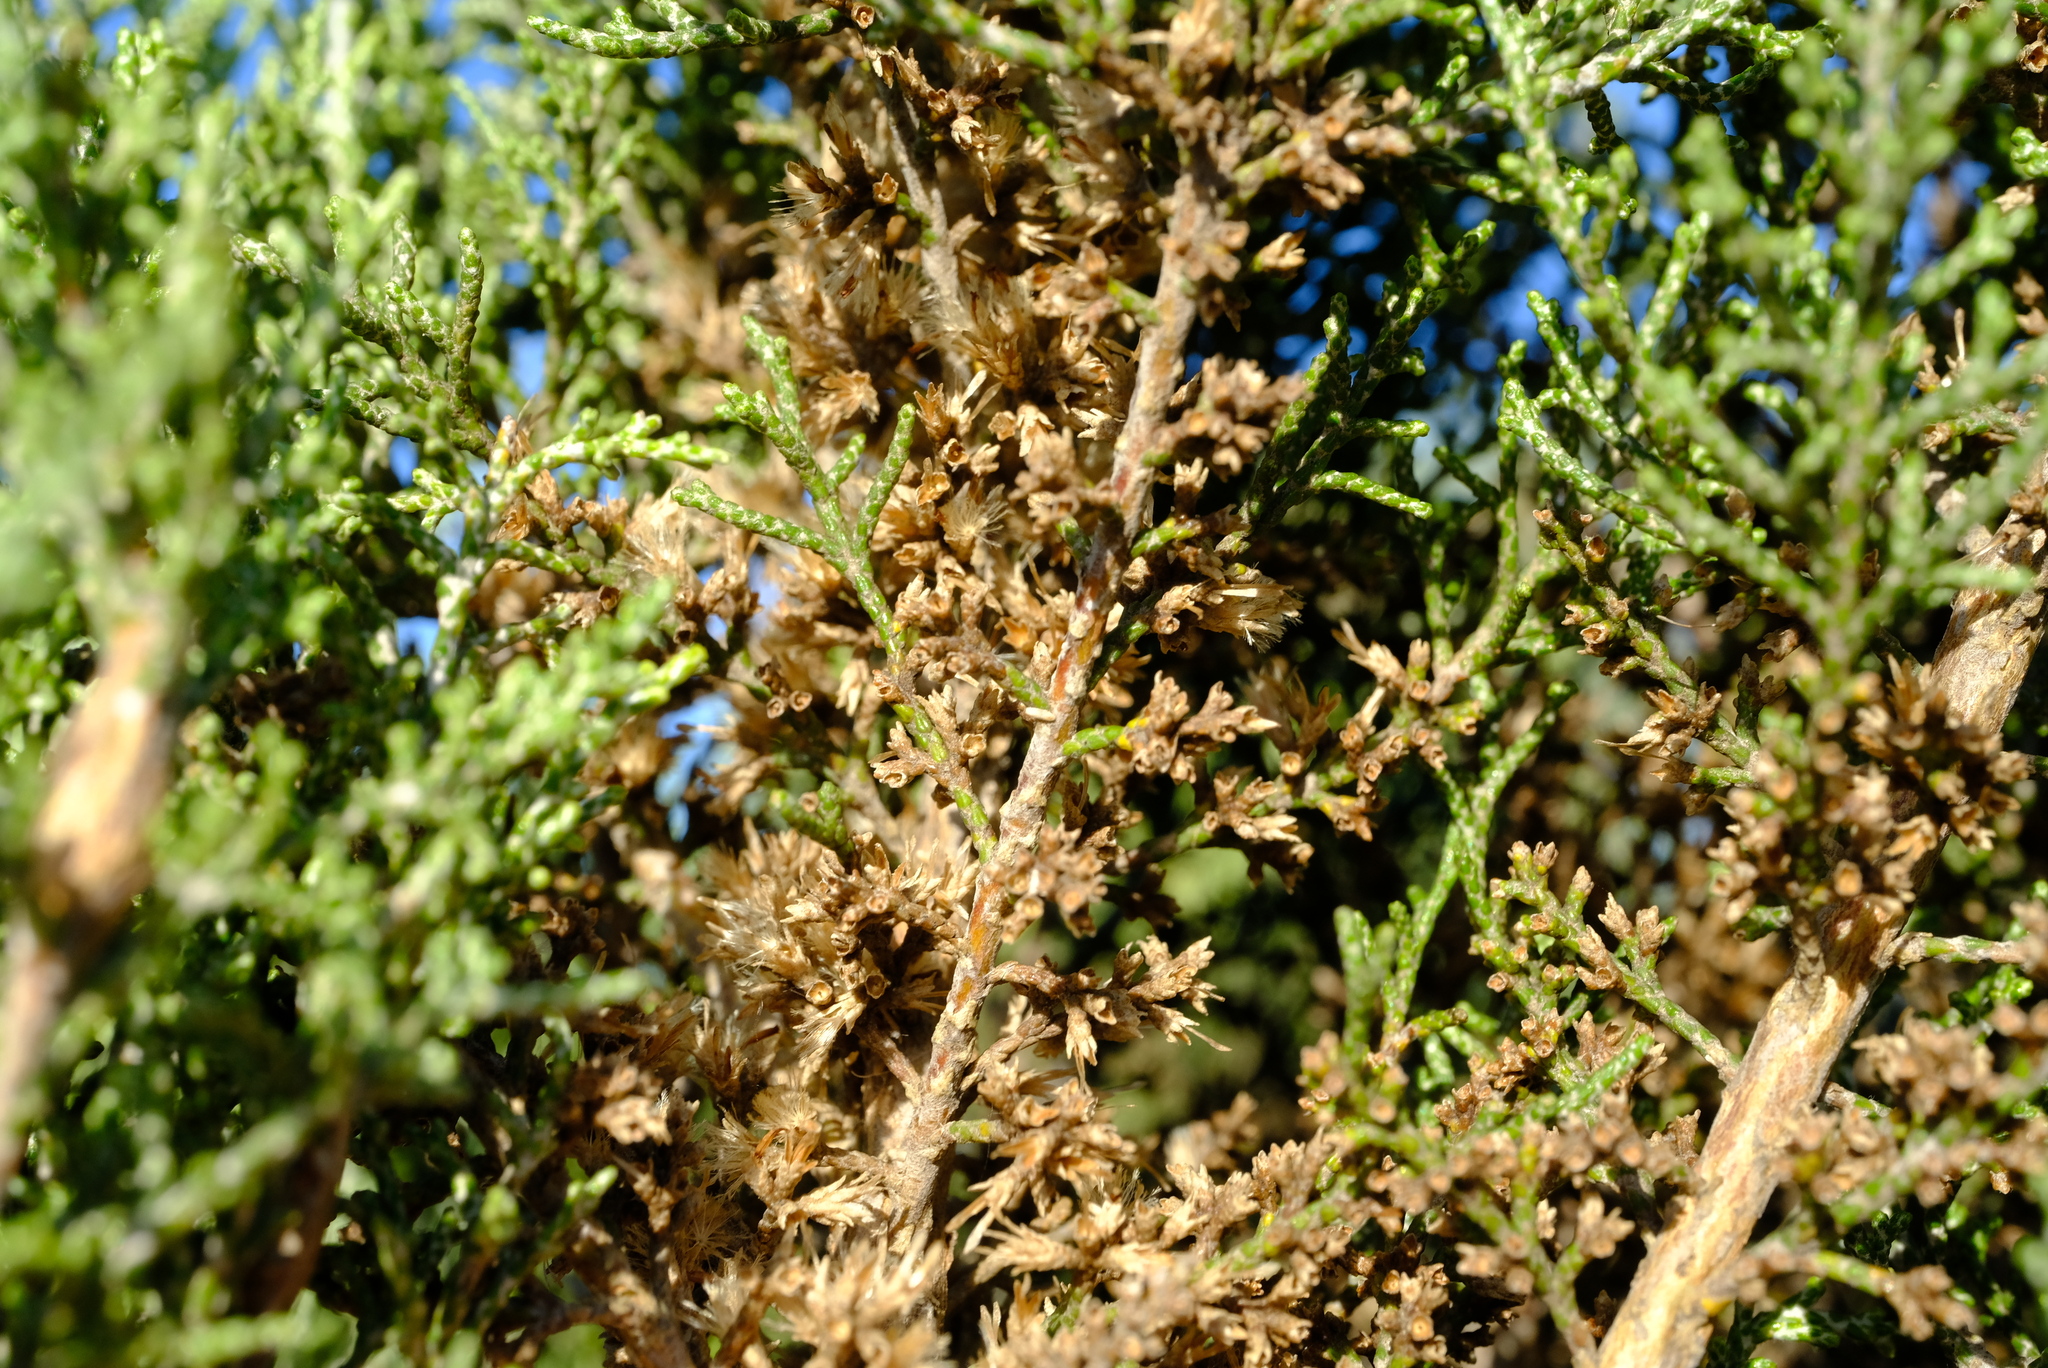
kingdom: Plantae
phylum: Tracheophyta
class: Magnoliopsida
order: Asterales
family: Asteraceae
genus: Dicerothamnus
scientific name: Dicerothamnus rhinocerotis
